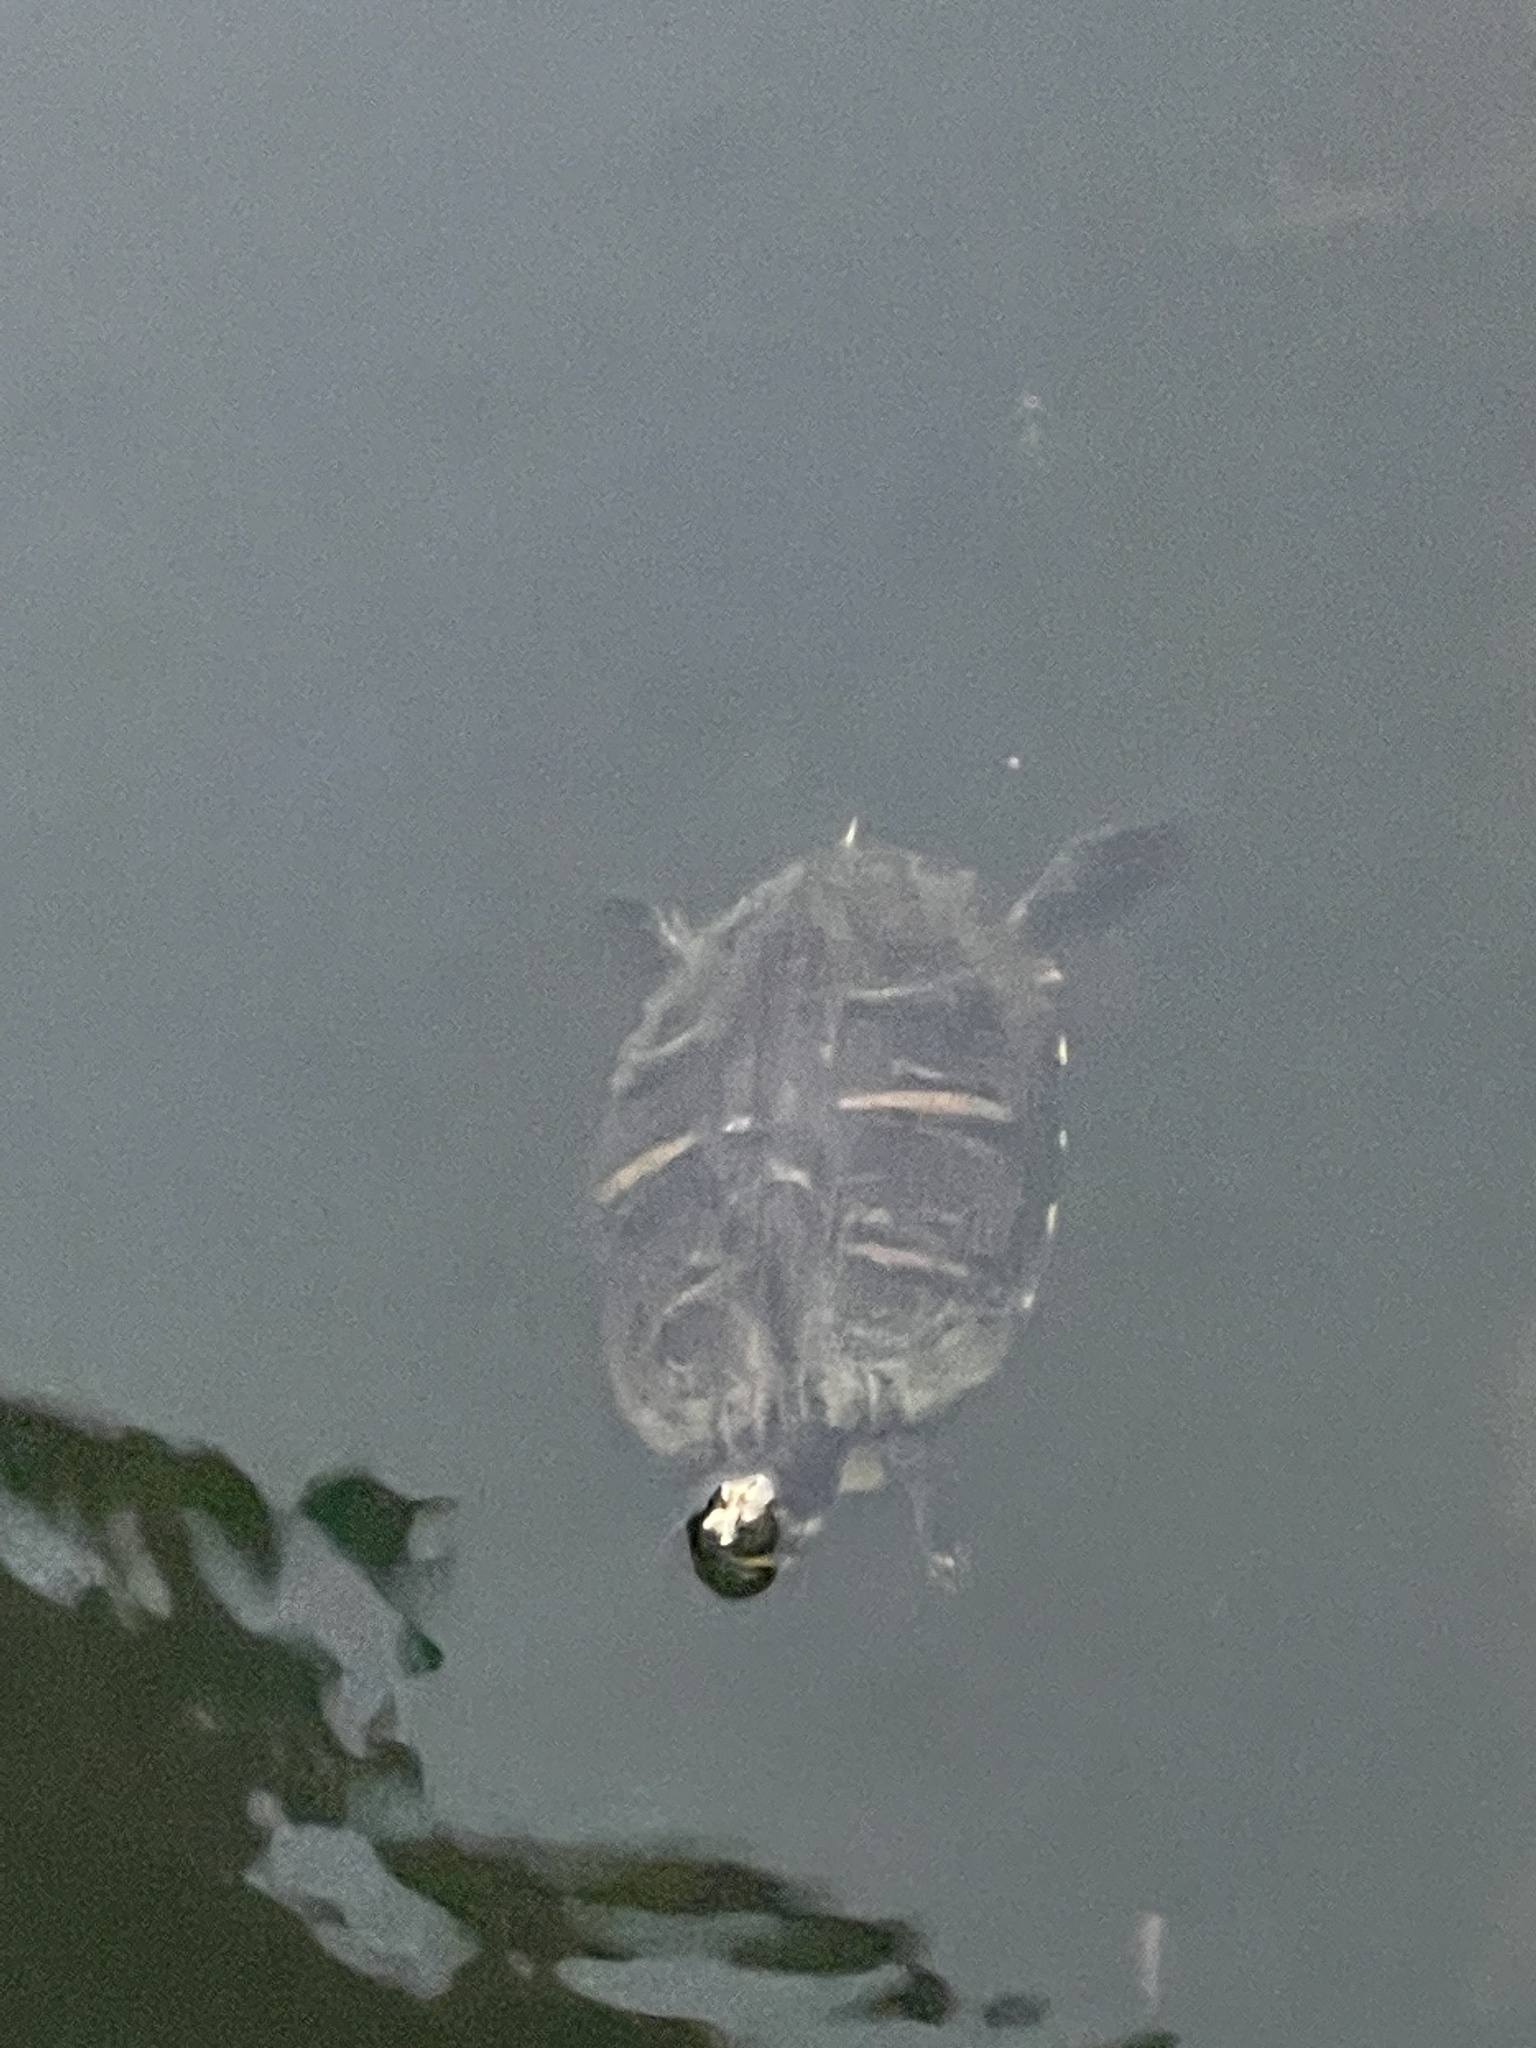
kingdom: Animalia
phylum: Chordata
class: Testudines
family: Emydidae
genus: Trachemys
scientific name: Trachemys scripta
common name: Slider
